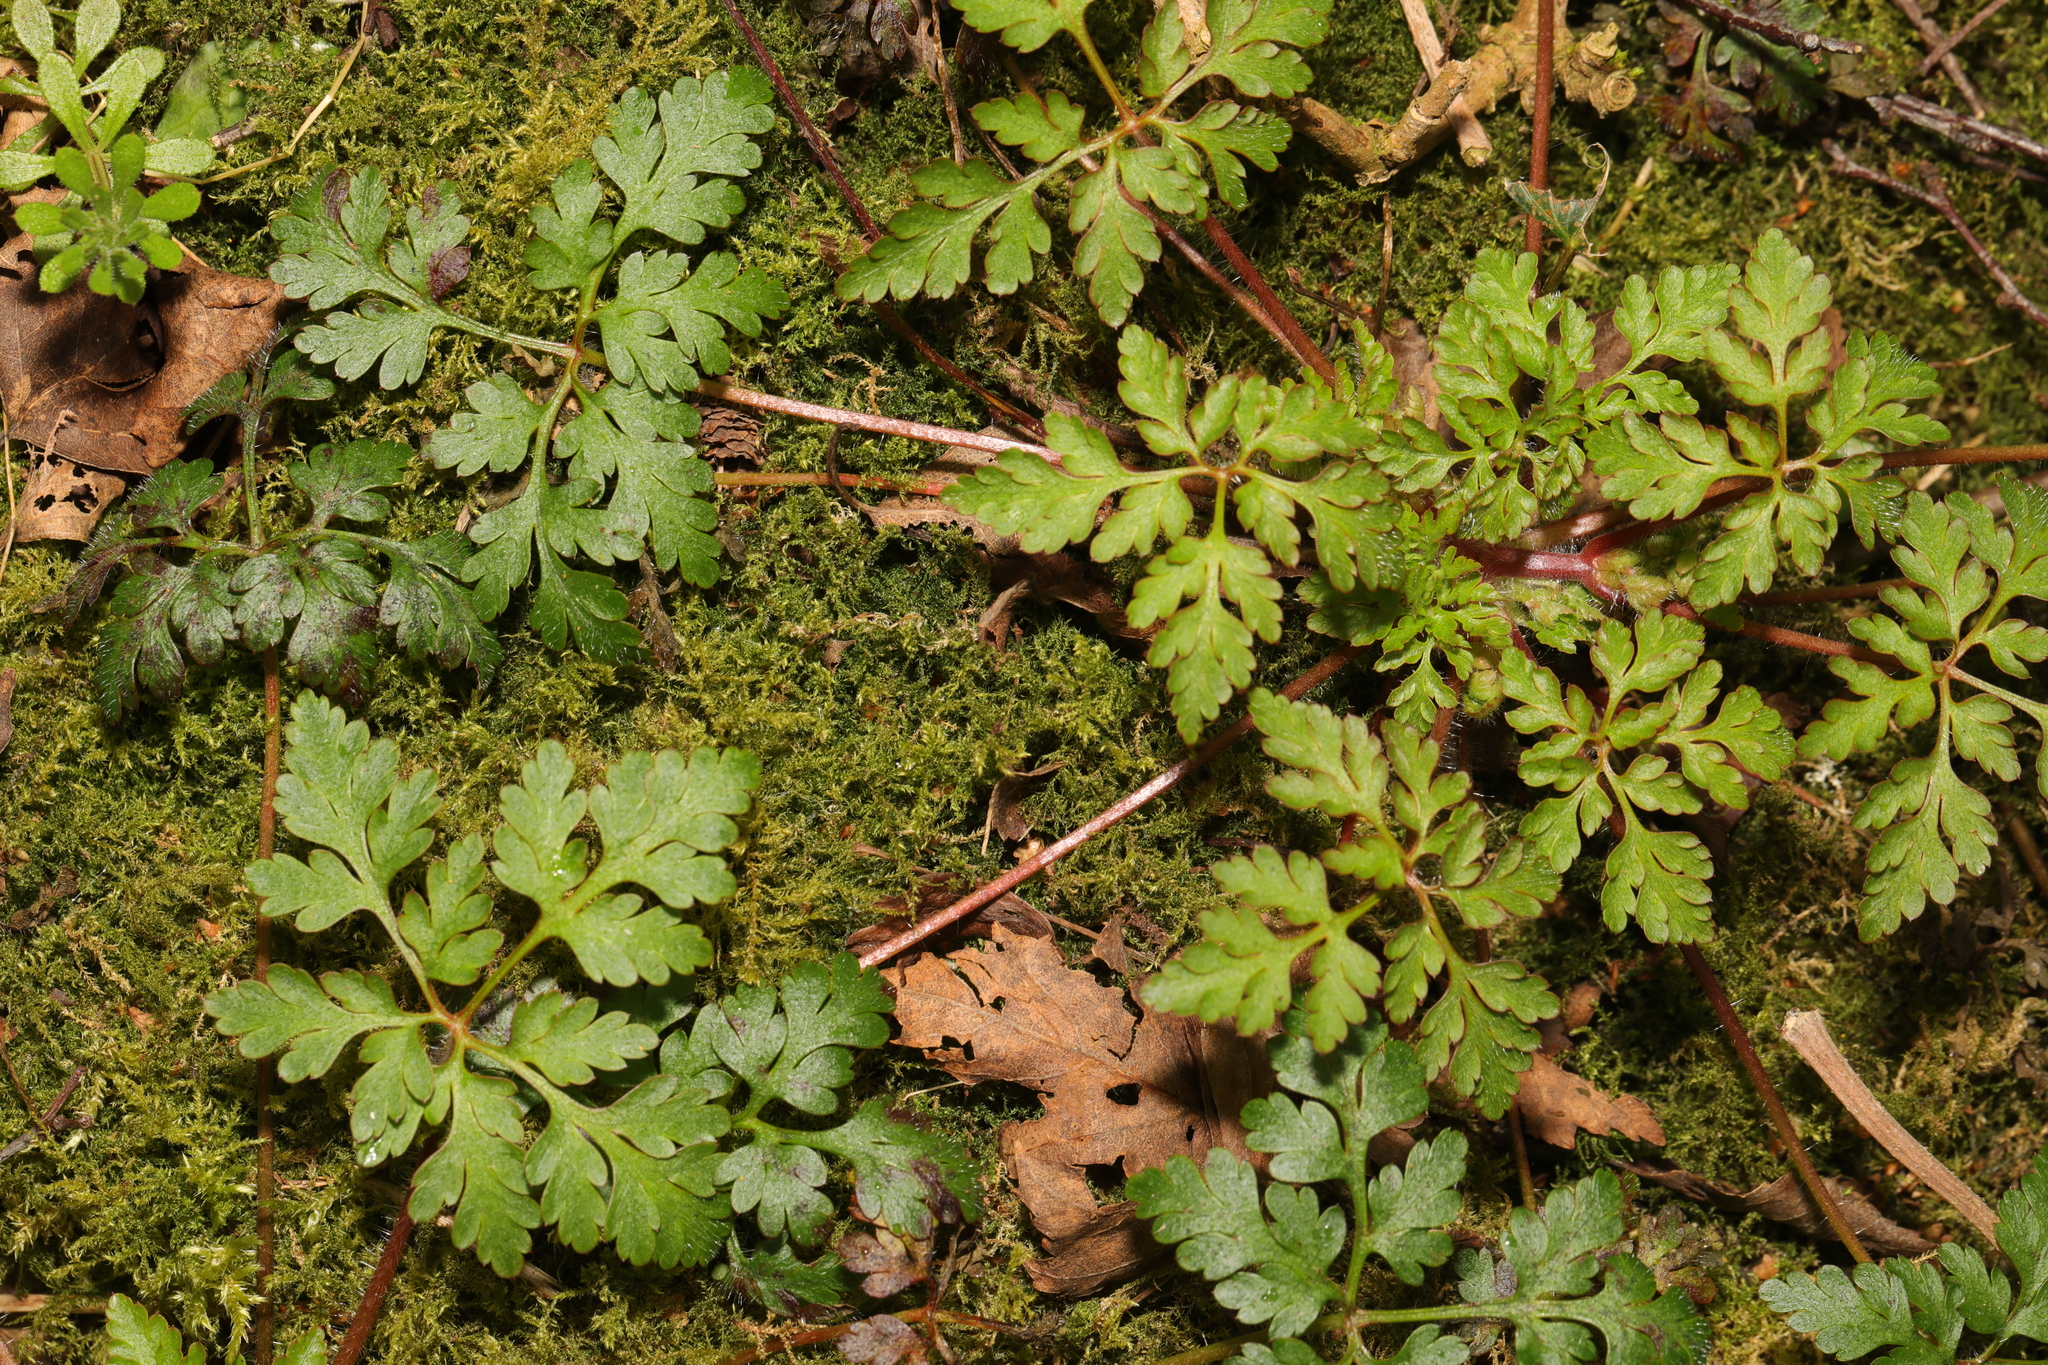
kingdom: Plantae
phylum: Tracheophyta
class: Magnoliopsida
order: Geraniales
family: Geraniaceae
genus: Geranium
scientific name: Geranium robertianum
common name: Herb-robert
